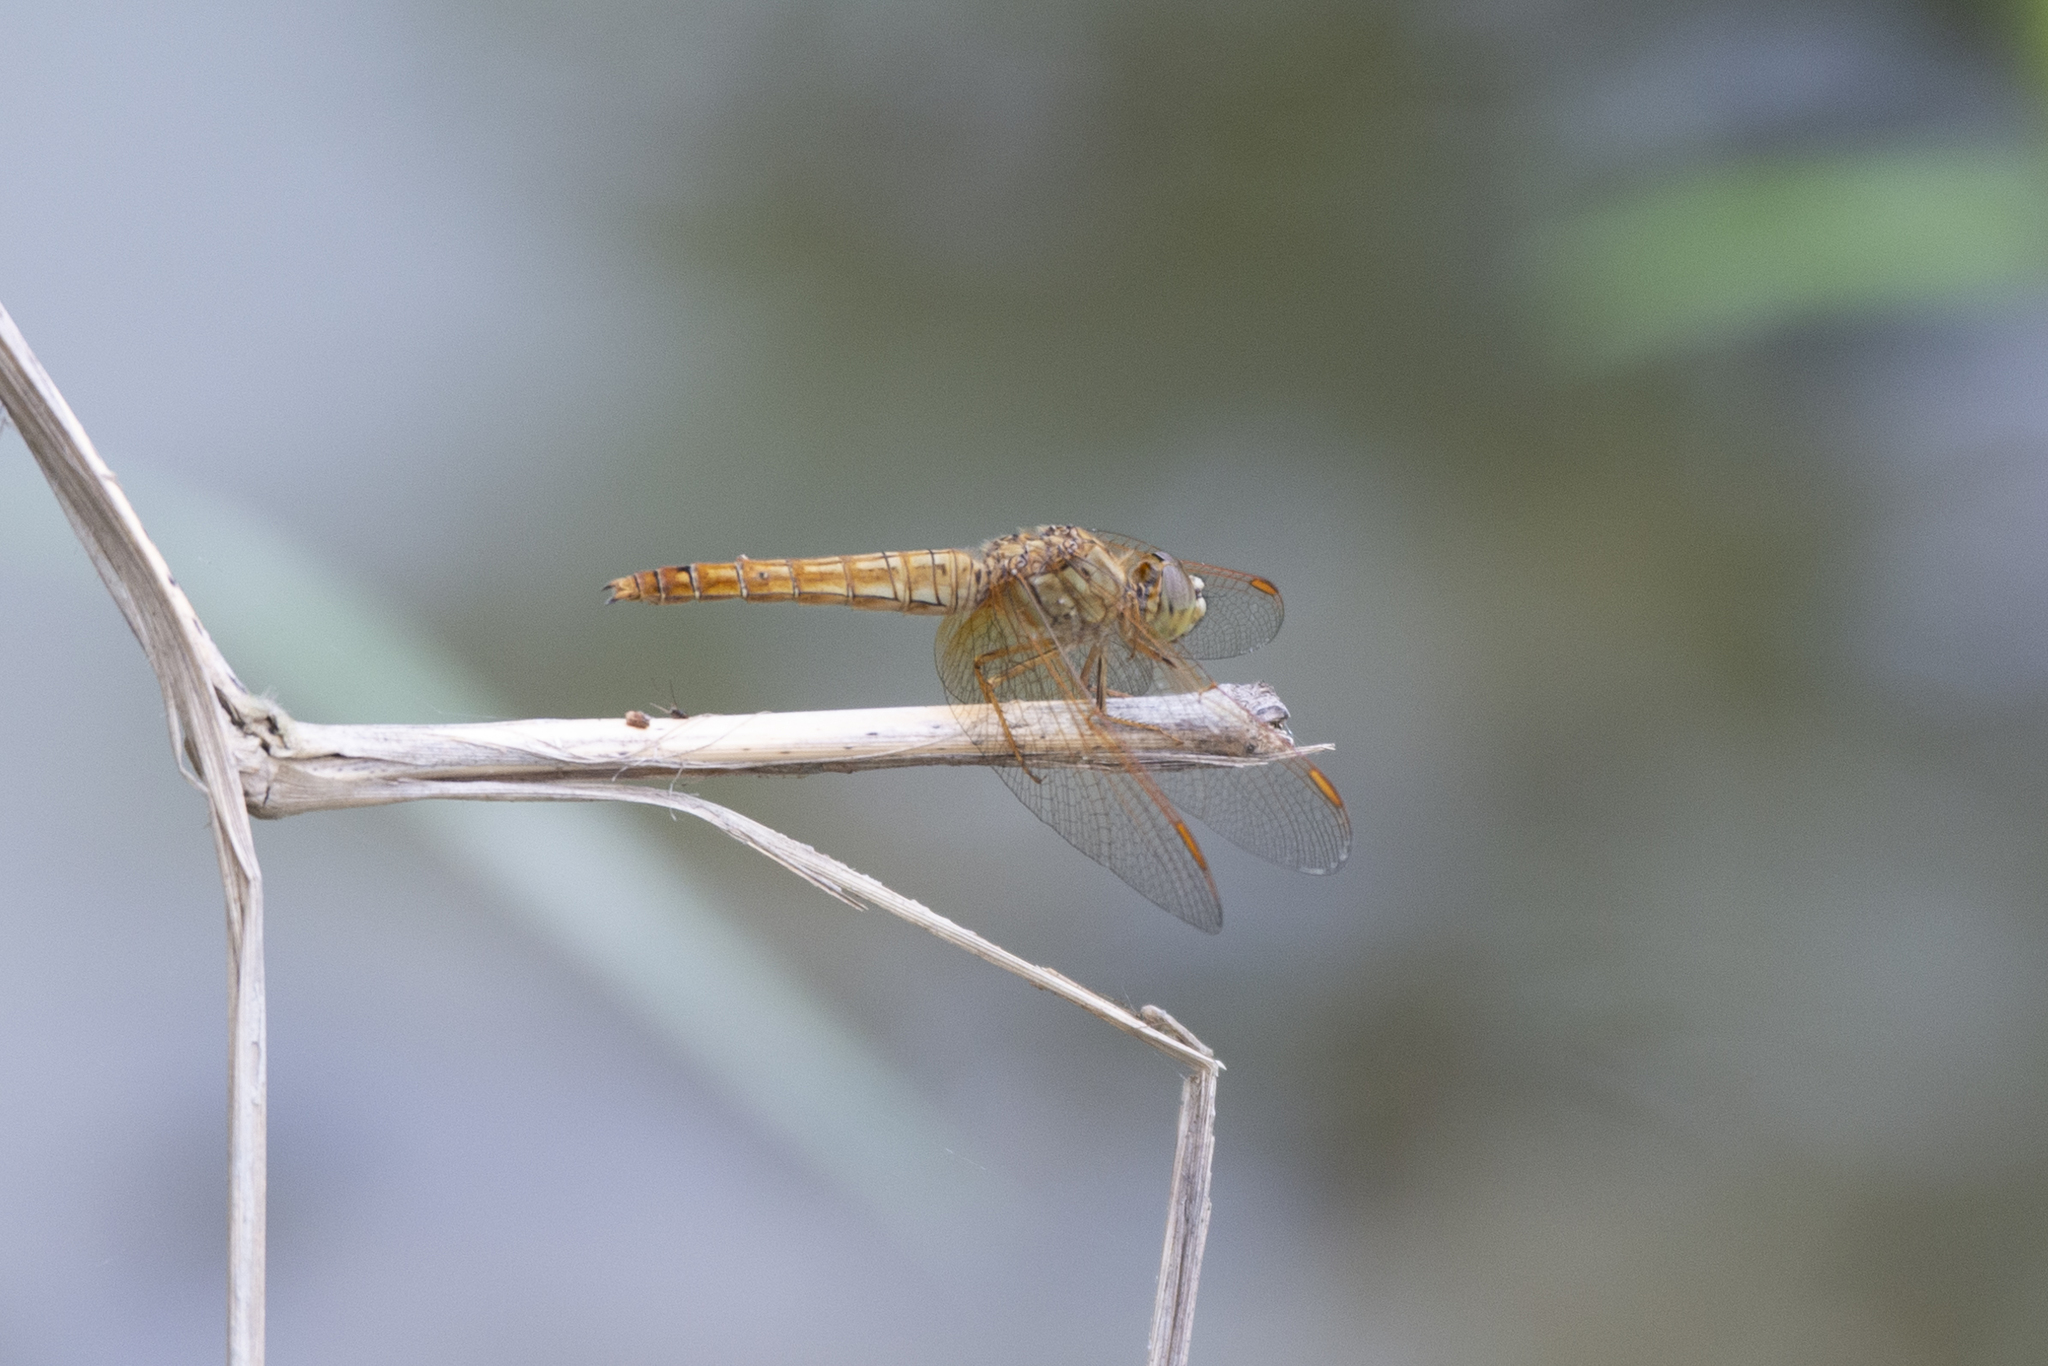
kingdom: Animalia
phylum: Arthropoda
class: Insecta
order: Odonata
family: Libellulidae
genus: Brachythemis
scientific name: Brachythemis contaminata
